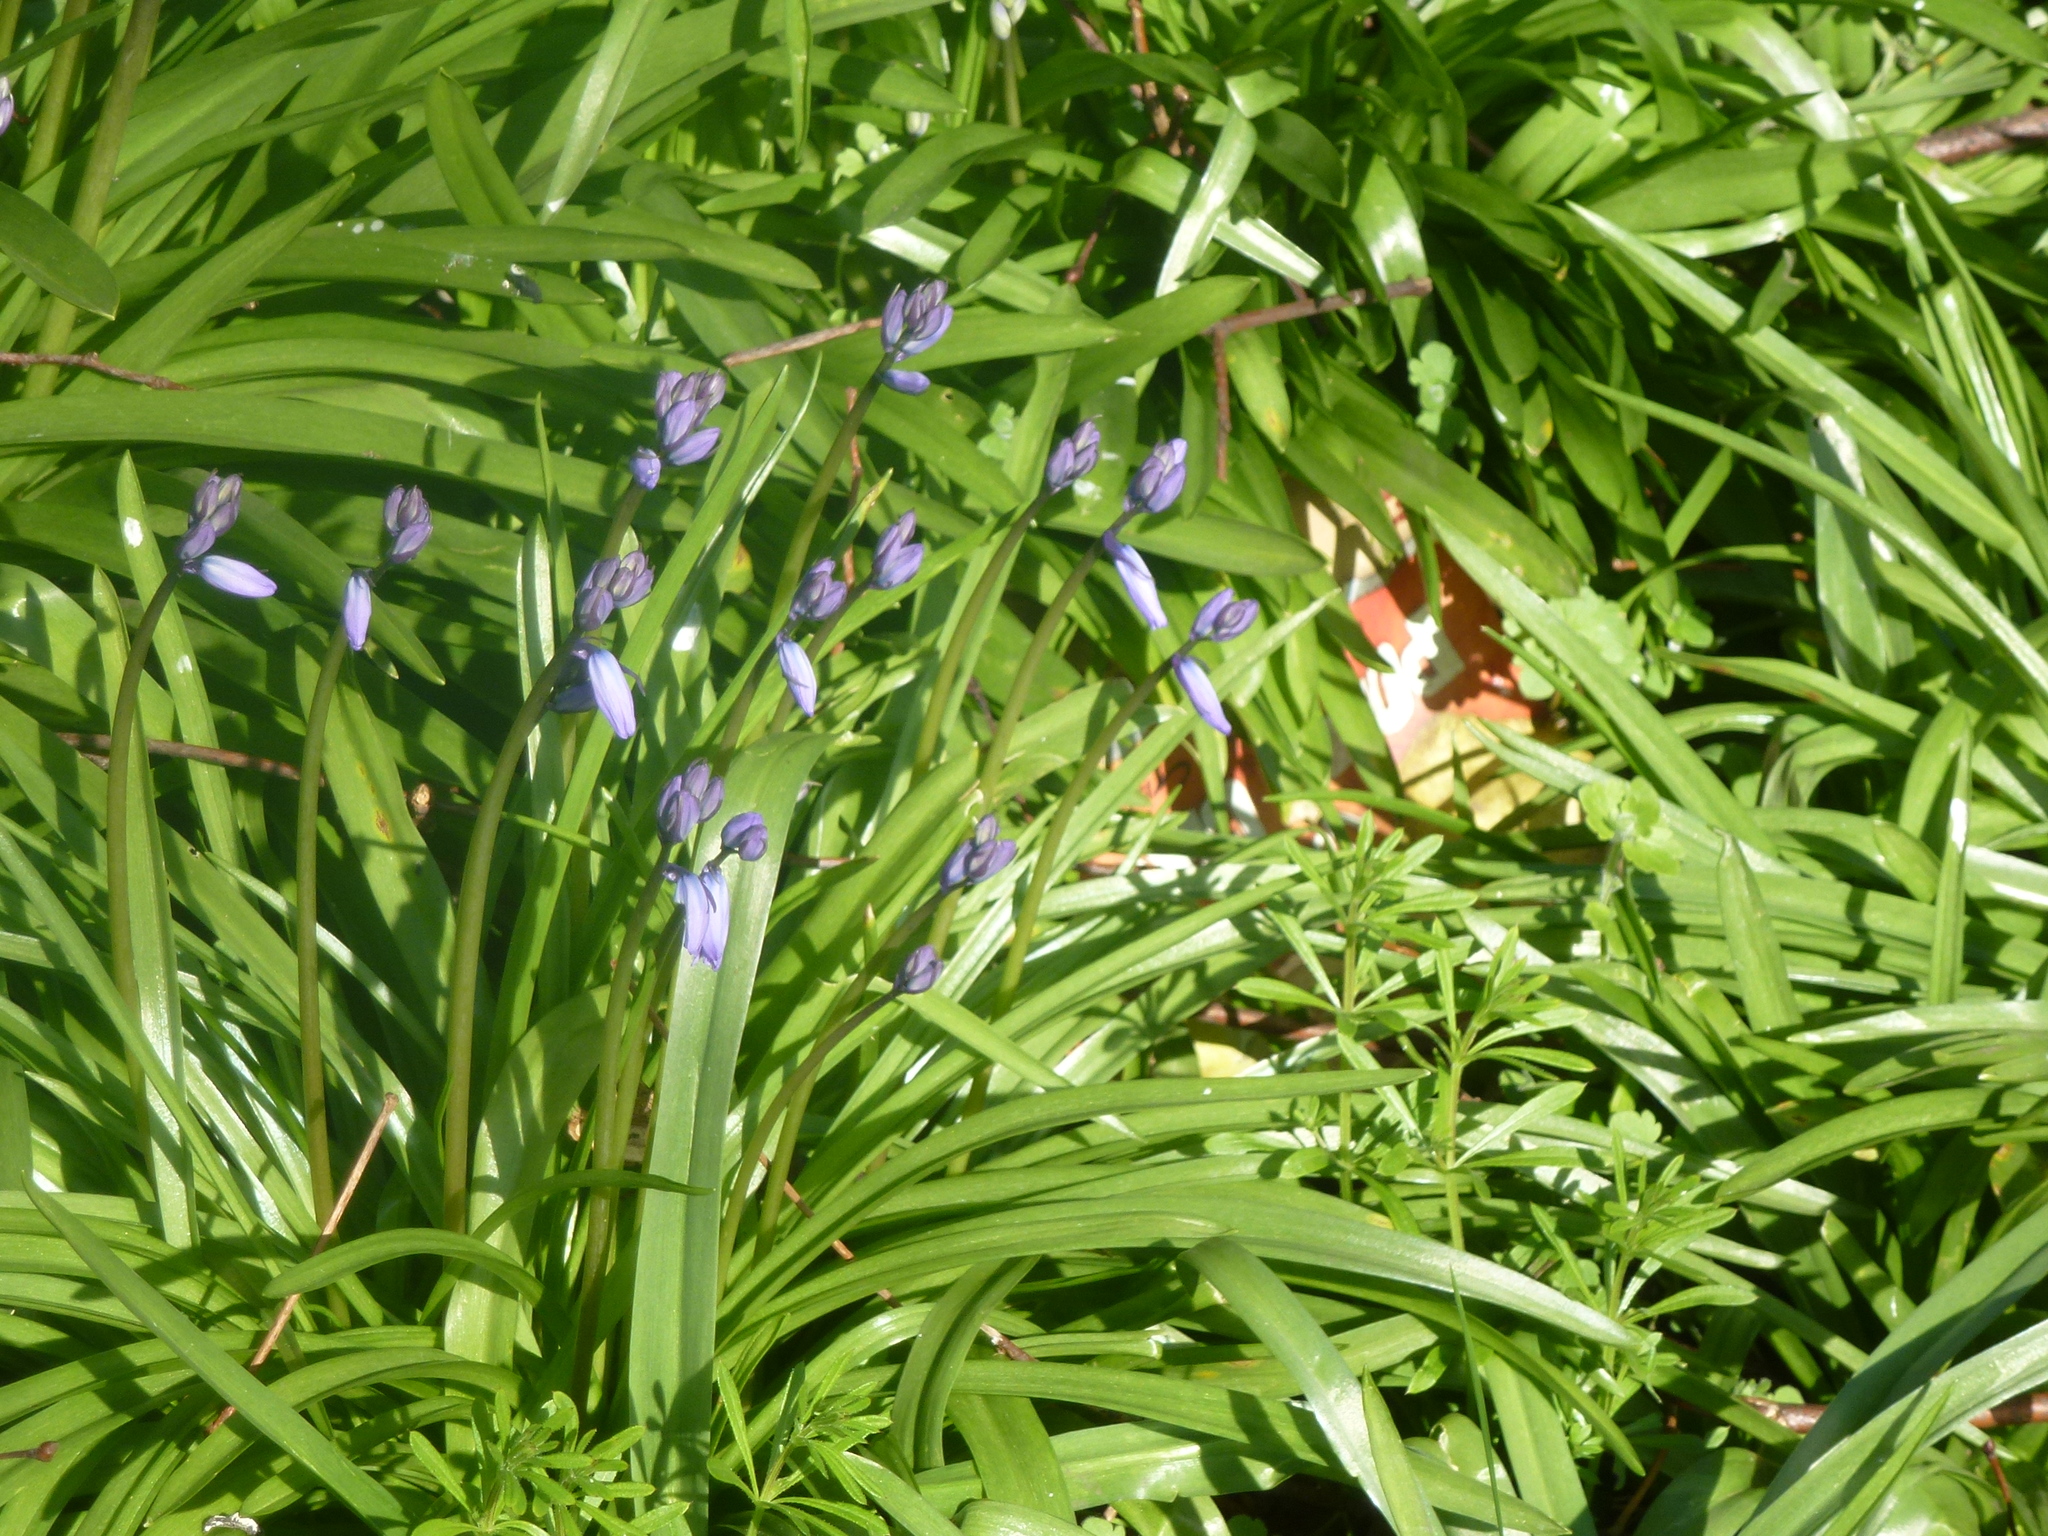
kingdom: Plantae
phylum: Tracheophyta
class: Liliopsida
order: Asparagales
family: Asparagaceae
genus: Hyacinthoides
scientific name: Hyacinthoides massartiana
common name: Hyacinthoides
